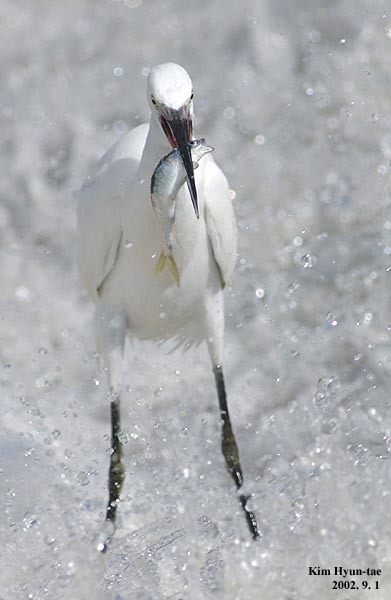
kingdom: Animalia
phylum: Chordata
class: Aves
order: Pelecaniformes
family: Ardeidae
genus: Egretta
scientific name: Egretta garzetta
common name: Little egret
